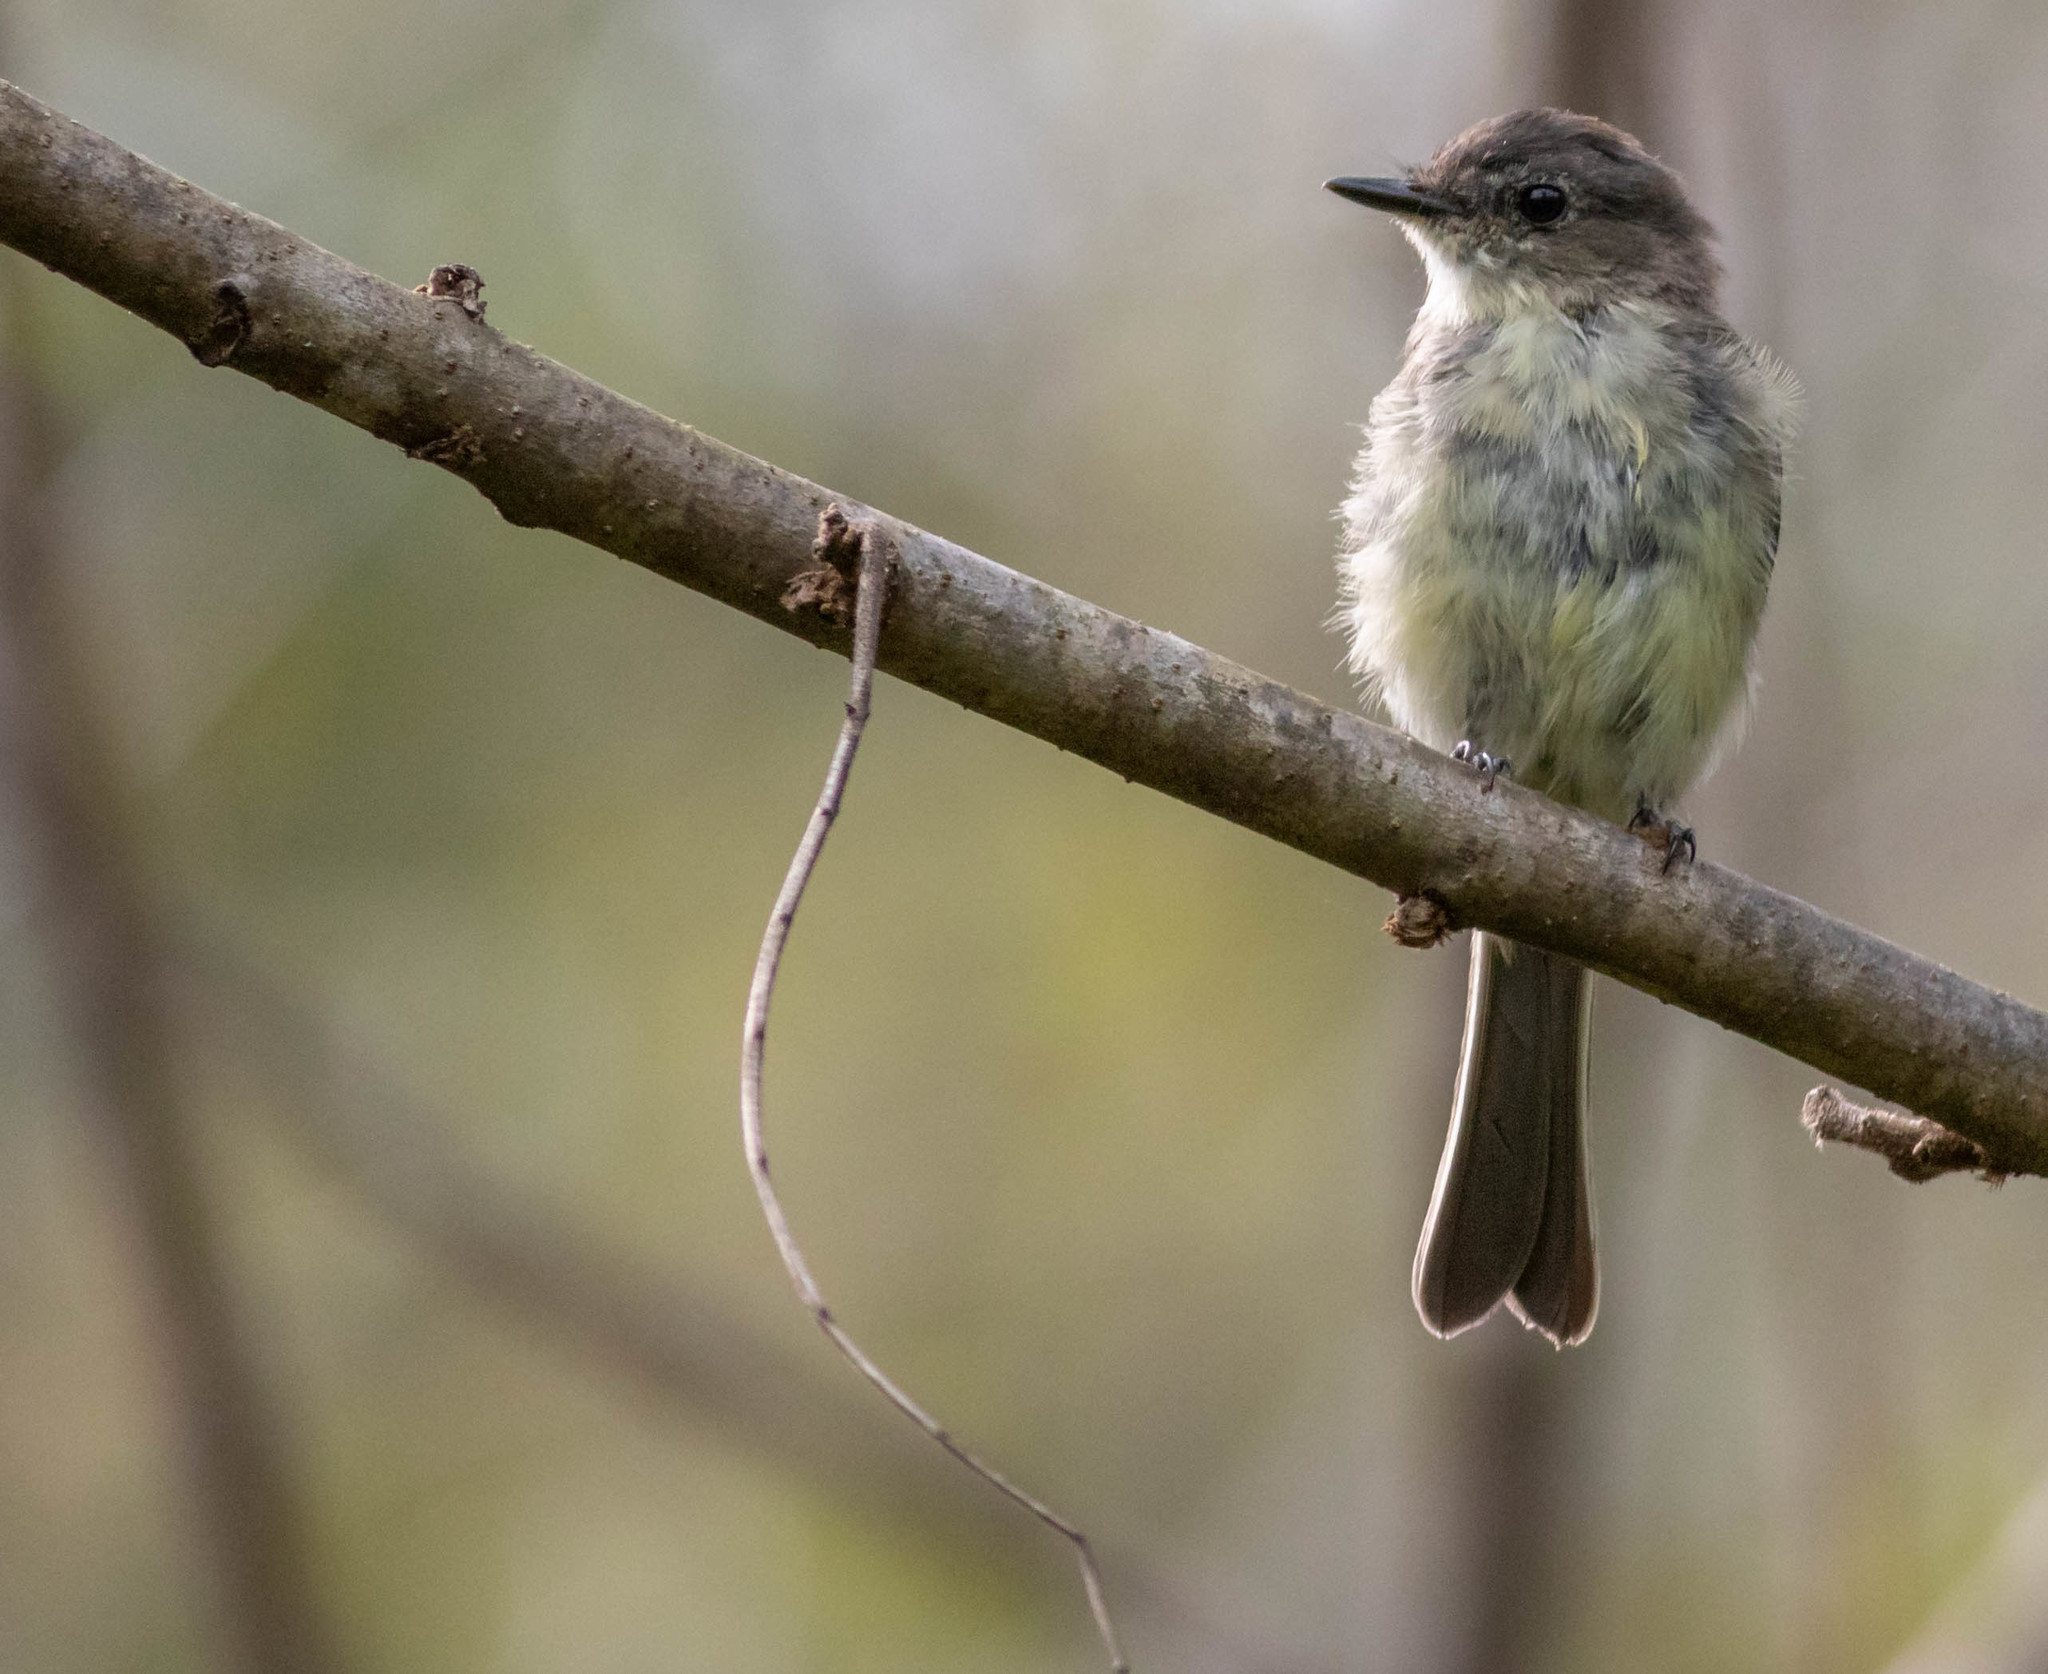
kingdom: Animalia
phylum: Chordata
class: Aves
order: Passeriformes
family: Tyrannidae
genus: Sayornis
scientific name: Sayornis phoebe
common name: Eastern phoebe
